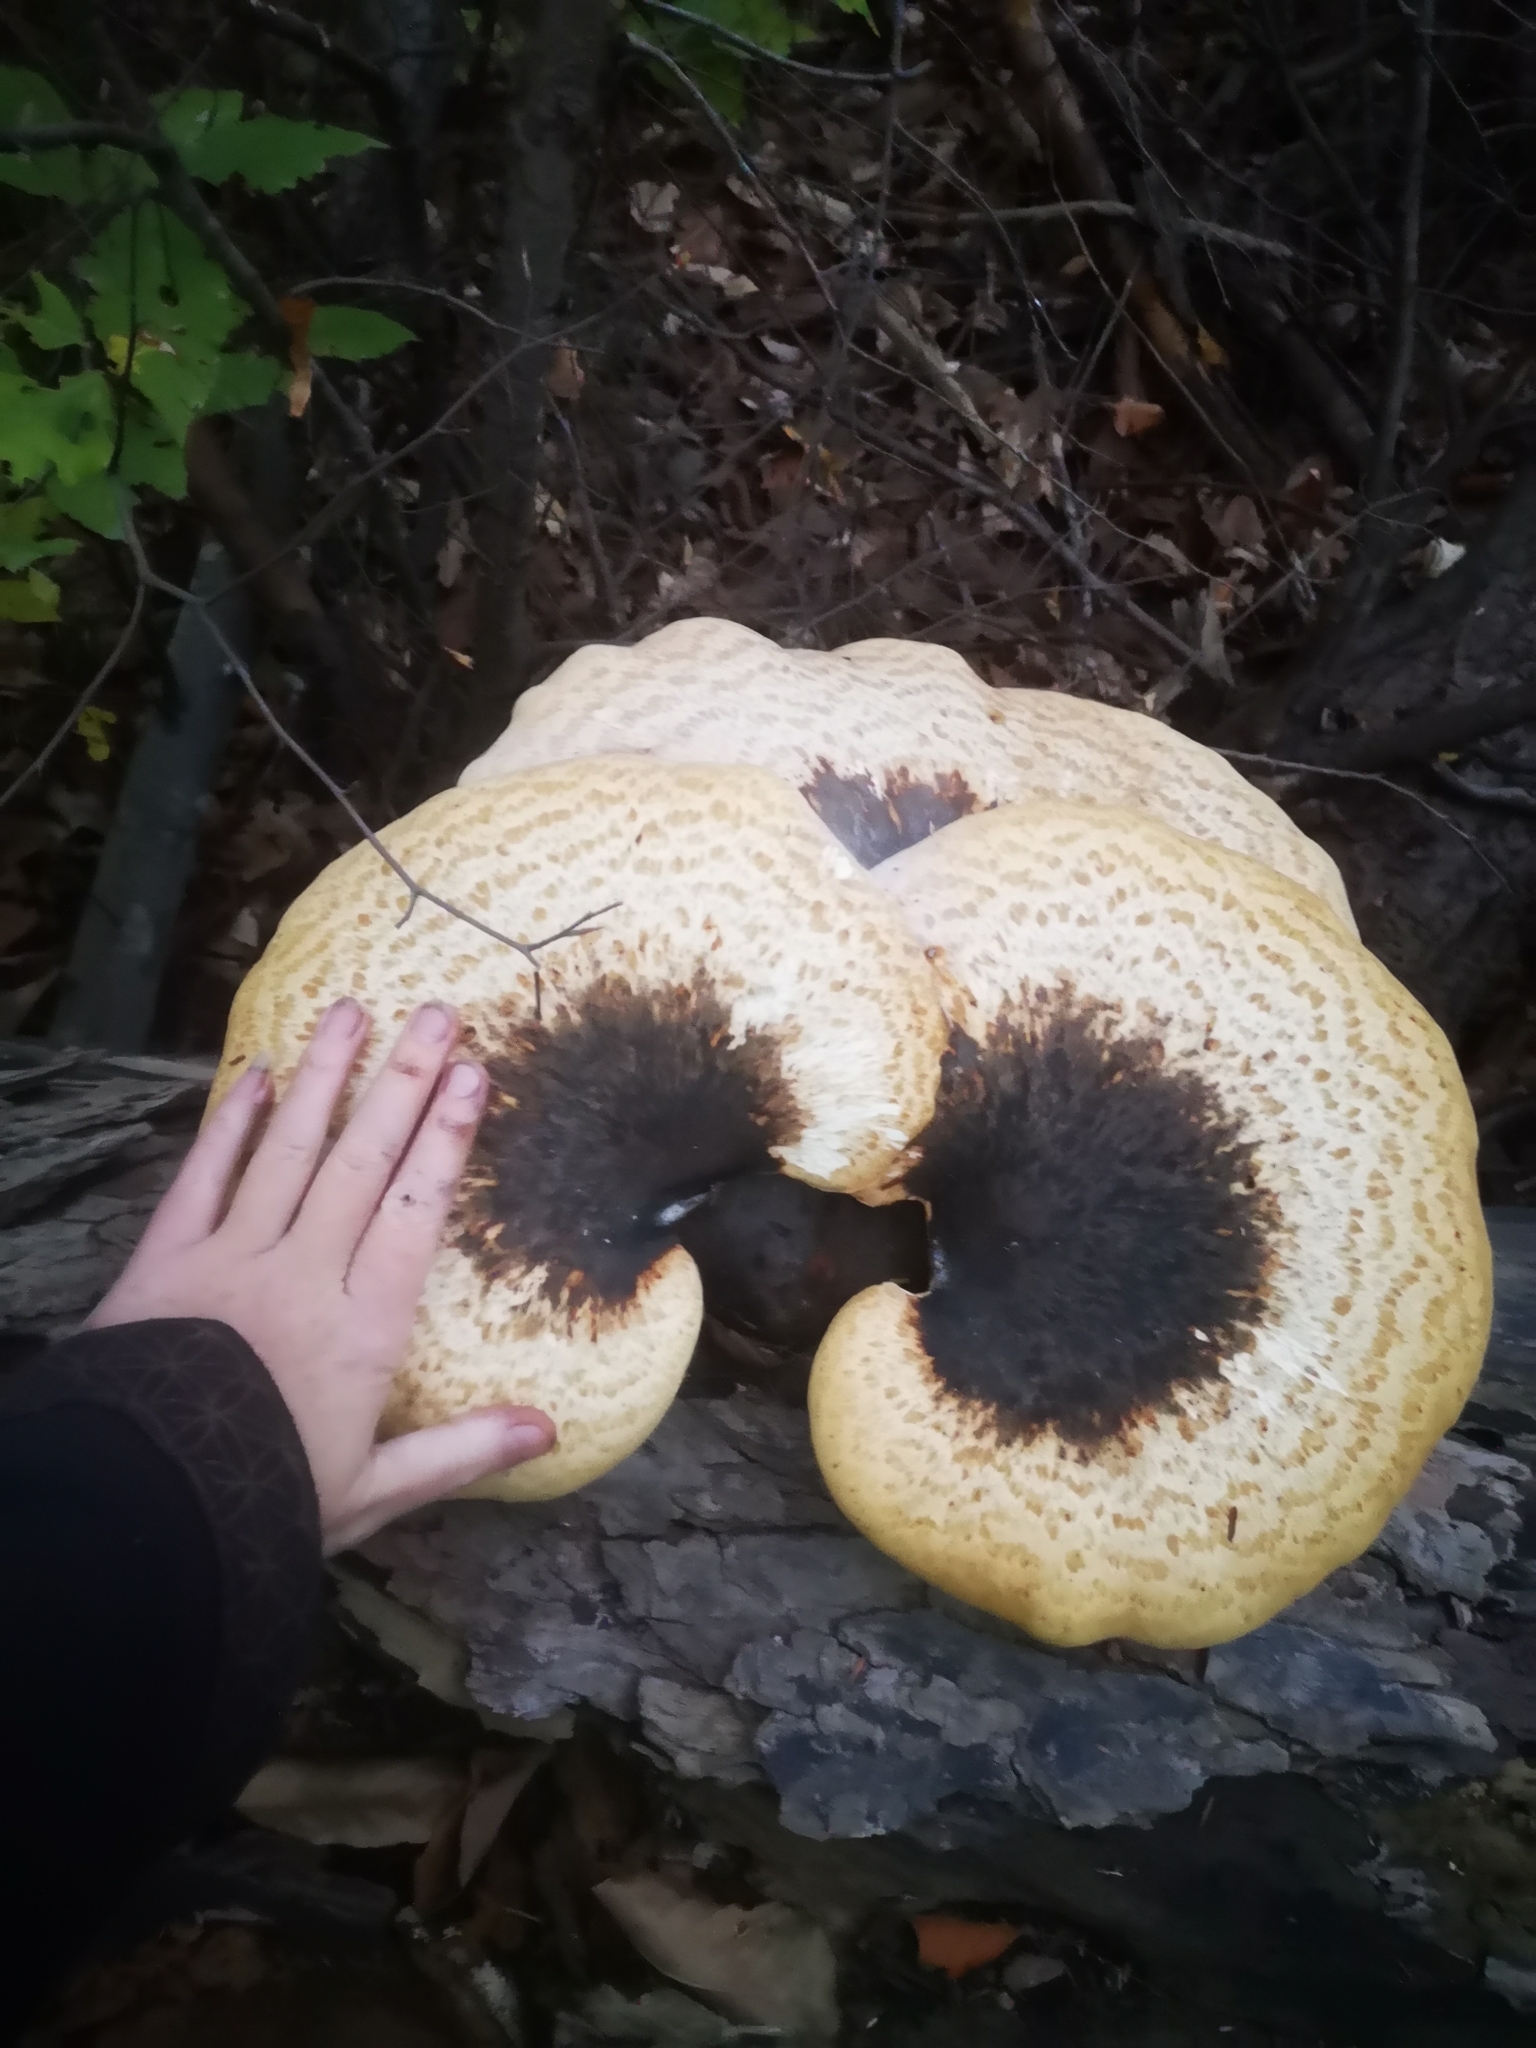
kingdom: Fungi
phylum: Basidiomycota
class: Agaricomycetes
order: Polyporales
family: Polyporaceae
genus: Cerioporus
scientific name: Cerioporus squamosus
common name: Dryad's saddle
